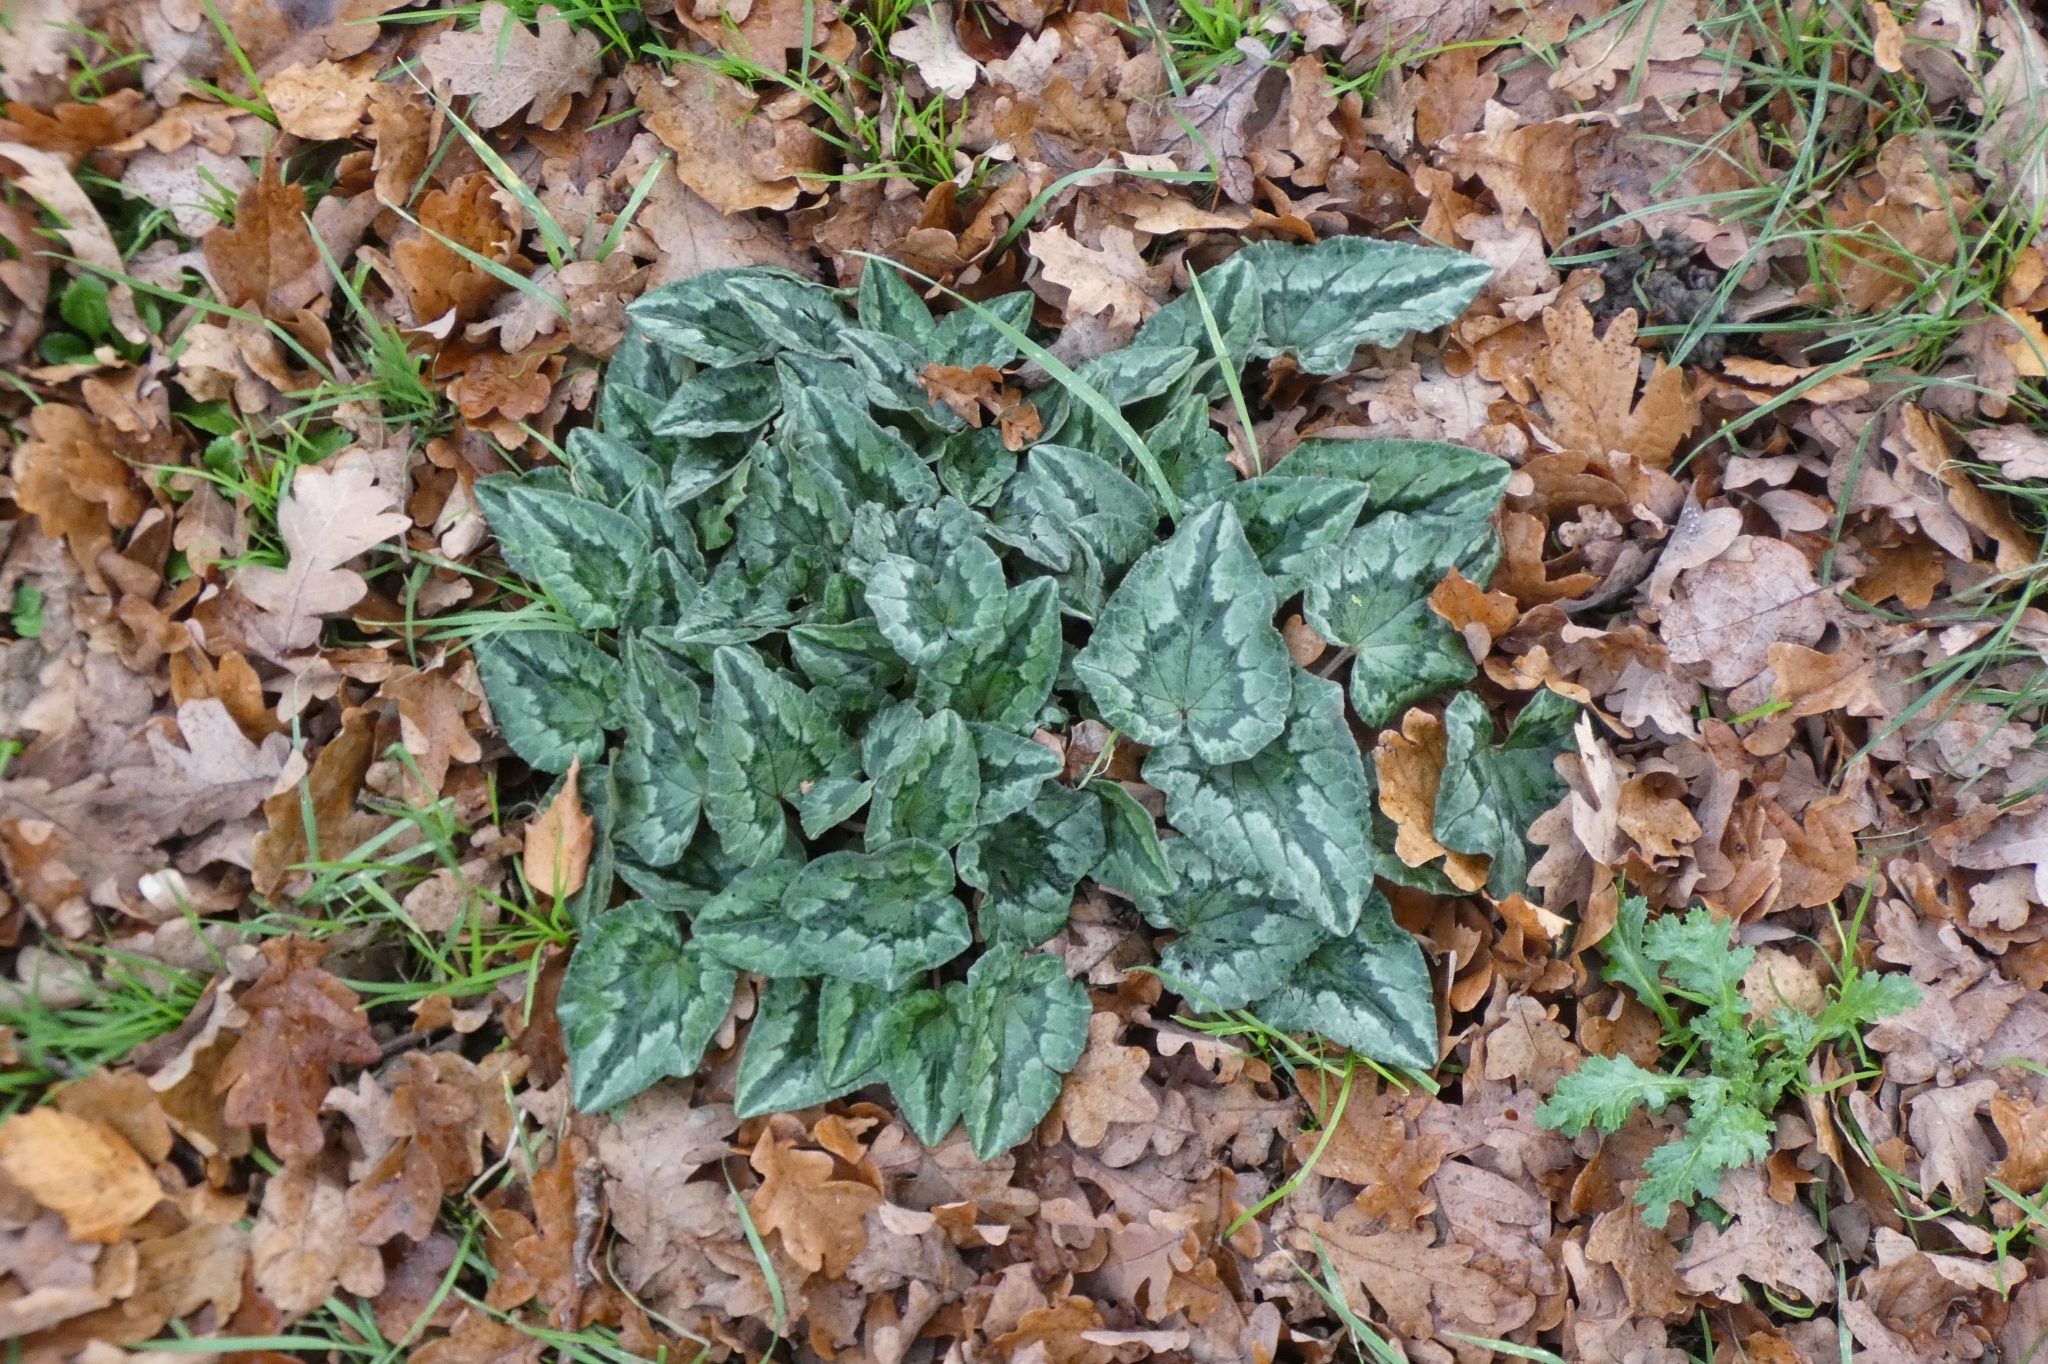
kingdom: Plantae
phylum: Tracheophyta
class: Magnoliopsida
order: Ericales
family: Primulaceae
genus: Cyclamen
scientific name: Cyclamen hederifolium
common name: Sowbread
